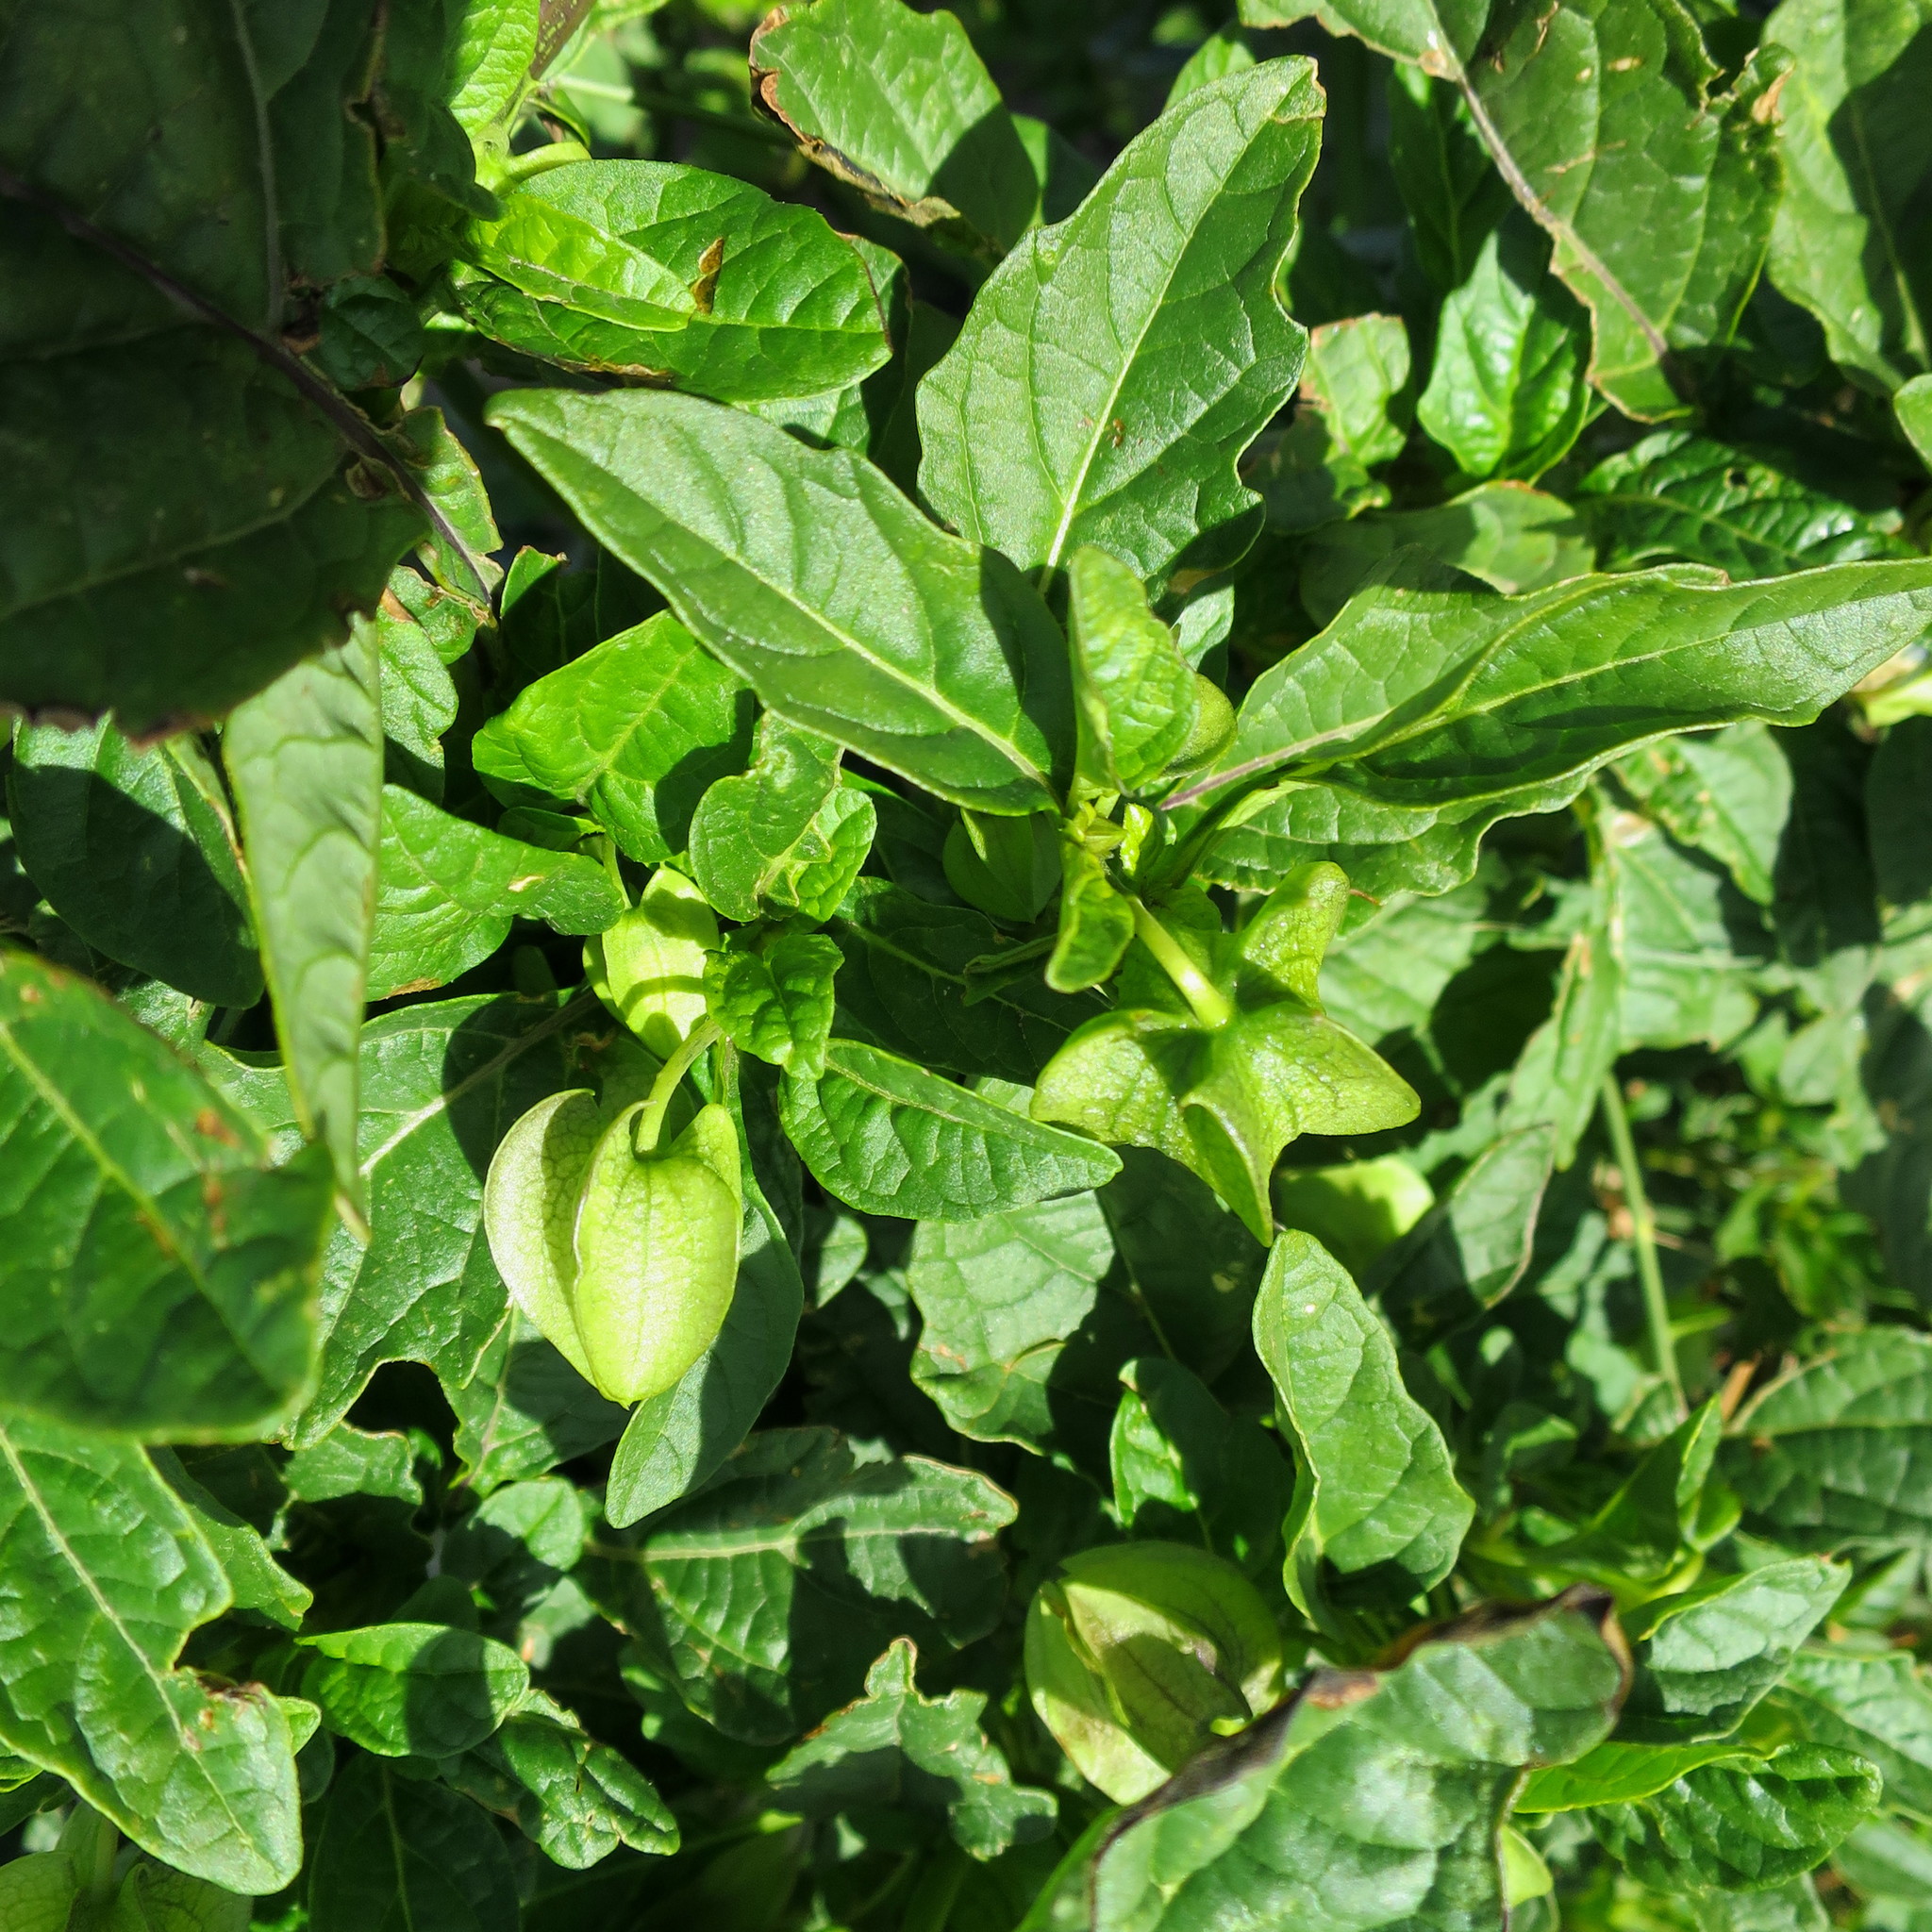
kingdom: Plantae
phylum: Tracheophyta
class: Magnoliopsida
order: Solanales
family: Solanaceae
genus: Nicandra
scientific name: Nicandra physalodes
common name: Apple-of-peru
